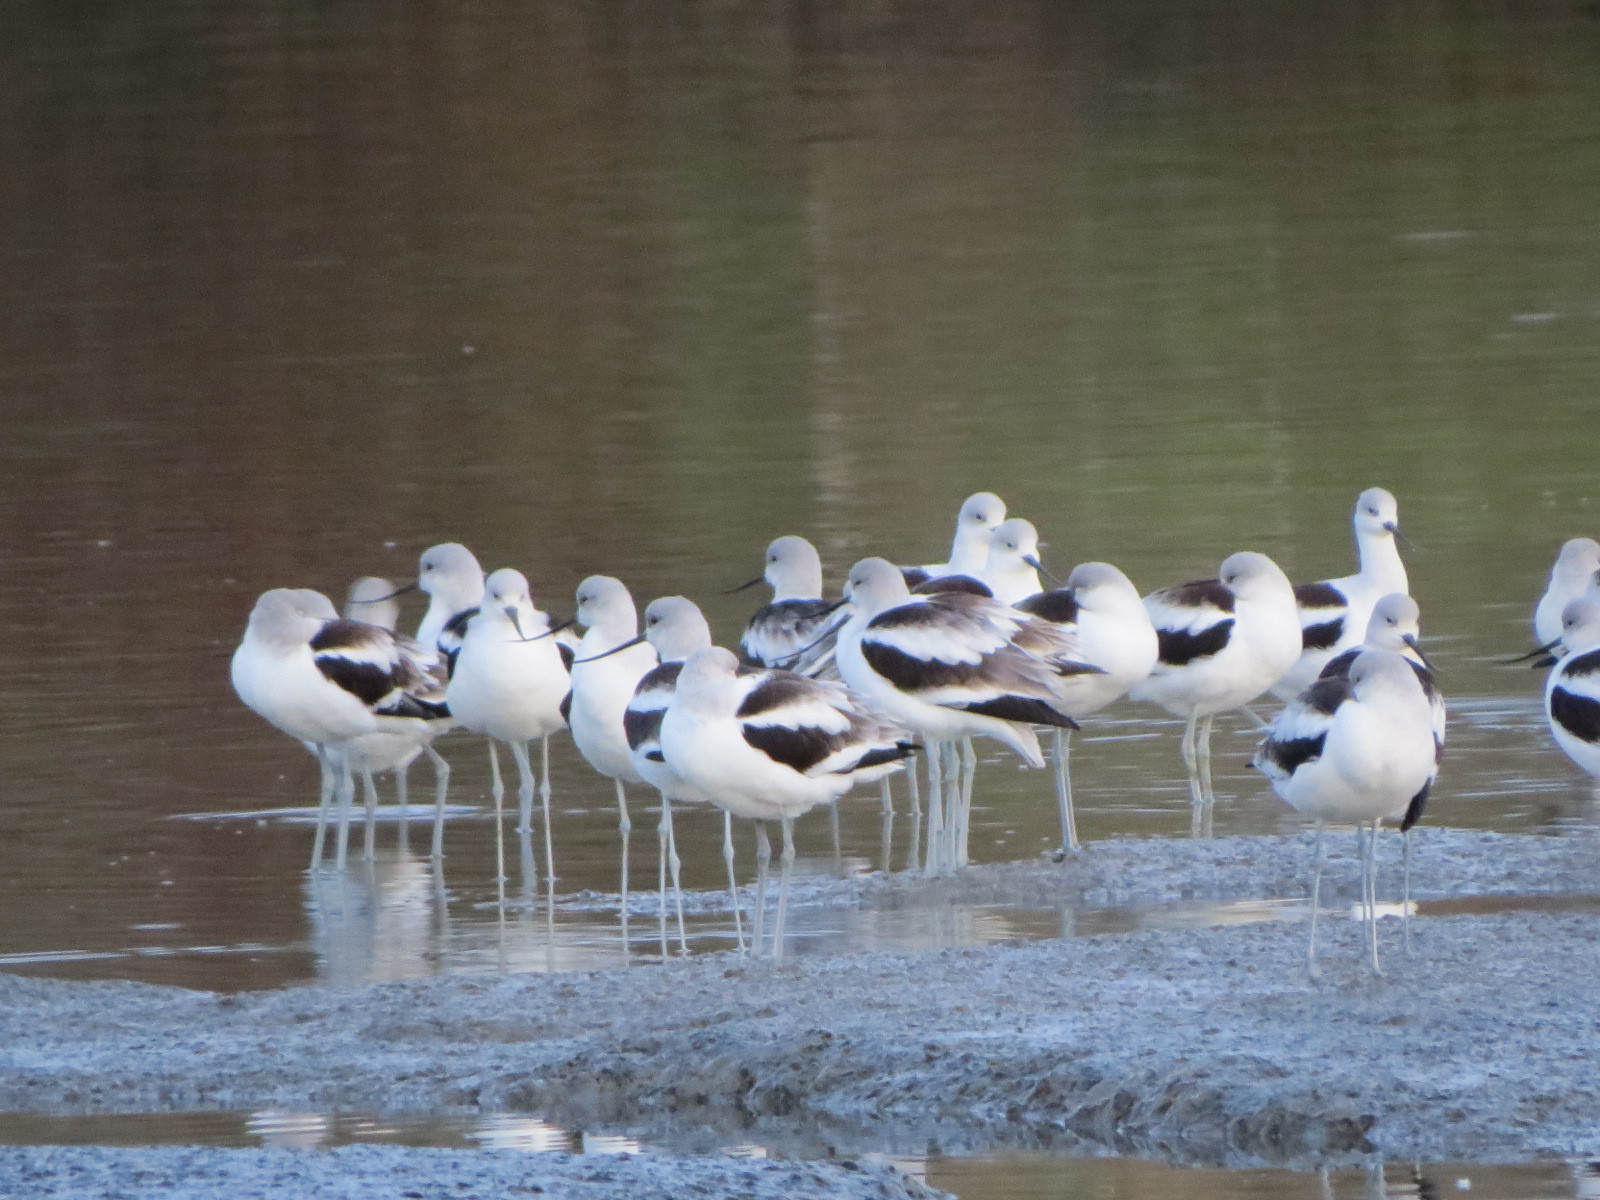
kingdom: Animalia
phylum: Chordata
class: Aves
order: Charadriiformes
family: Recurvirostridae
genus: Recurvirostra
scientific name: Recurvirostra americana
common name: American avocet
